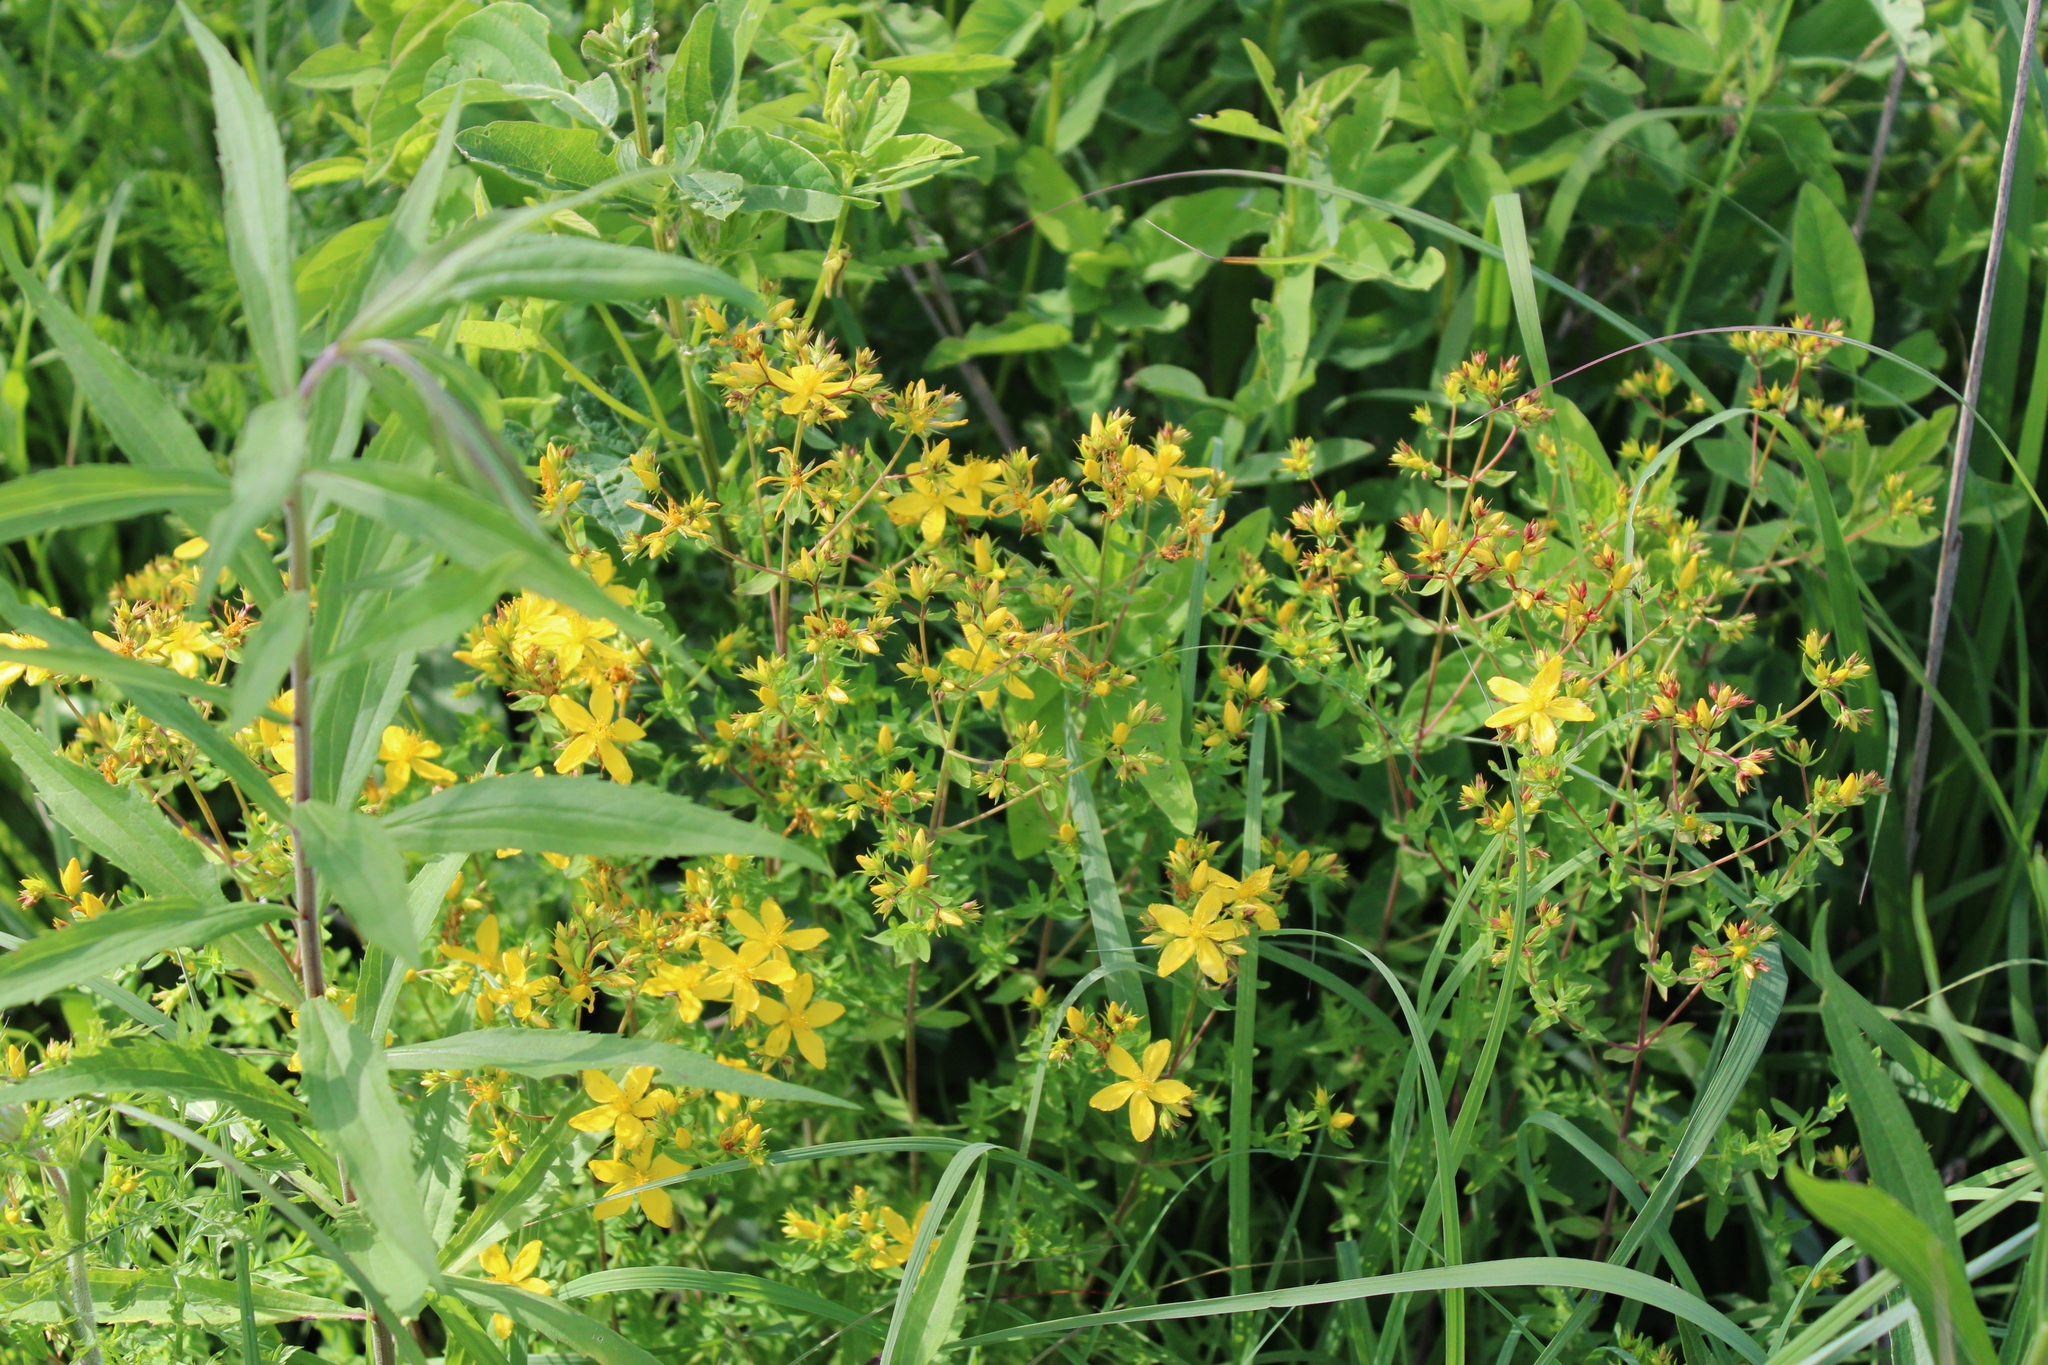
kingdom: Plantae
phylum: Tracheophyta
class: Magnoliopsida
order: Malpighiales
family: Hypericaceae
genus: Hypericum
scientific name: Hypericum perforatum
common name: Common st. johnswort
